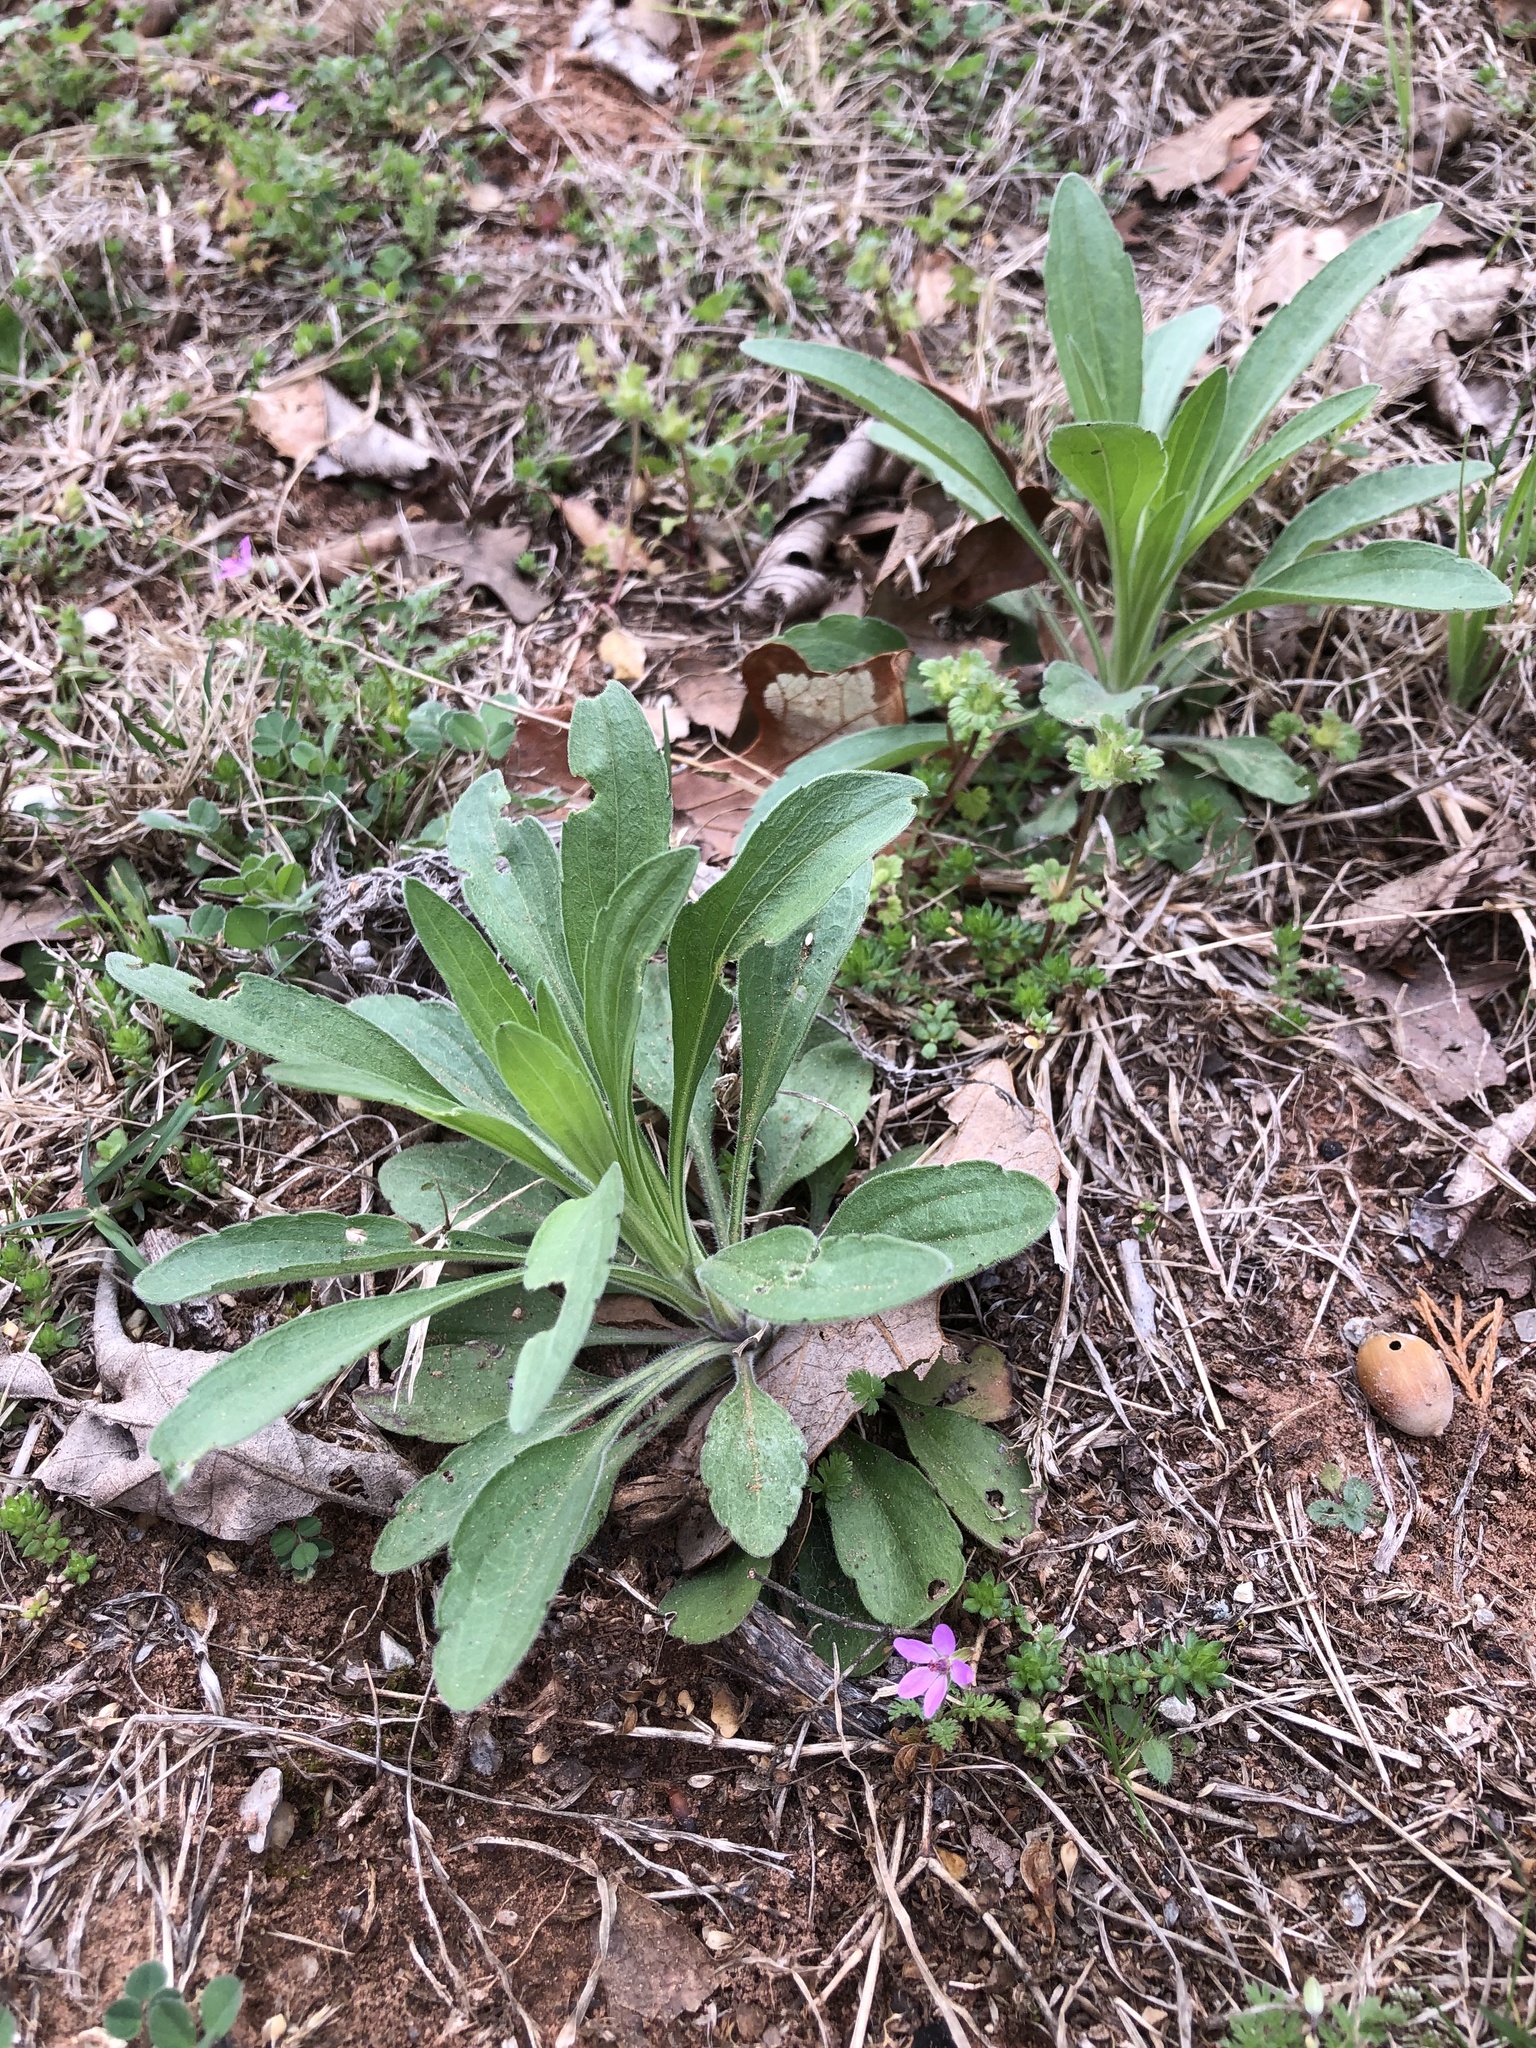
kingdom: Plantae
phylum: Tracheophyta
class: Magnoliopsida
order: Asterales
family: Asteraceae
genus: Erigeron
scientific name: Erigeron canadensis
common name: Canadian fleabane
